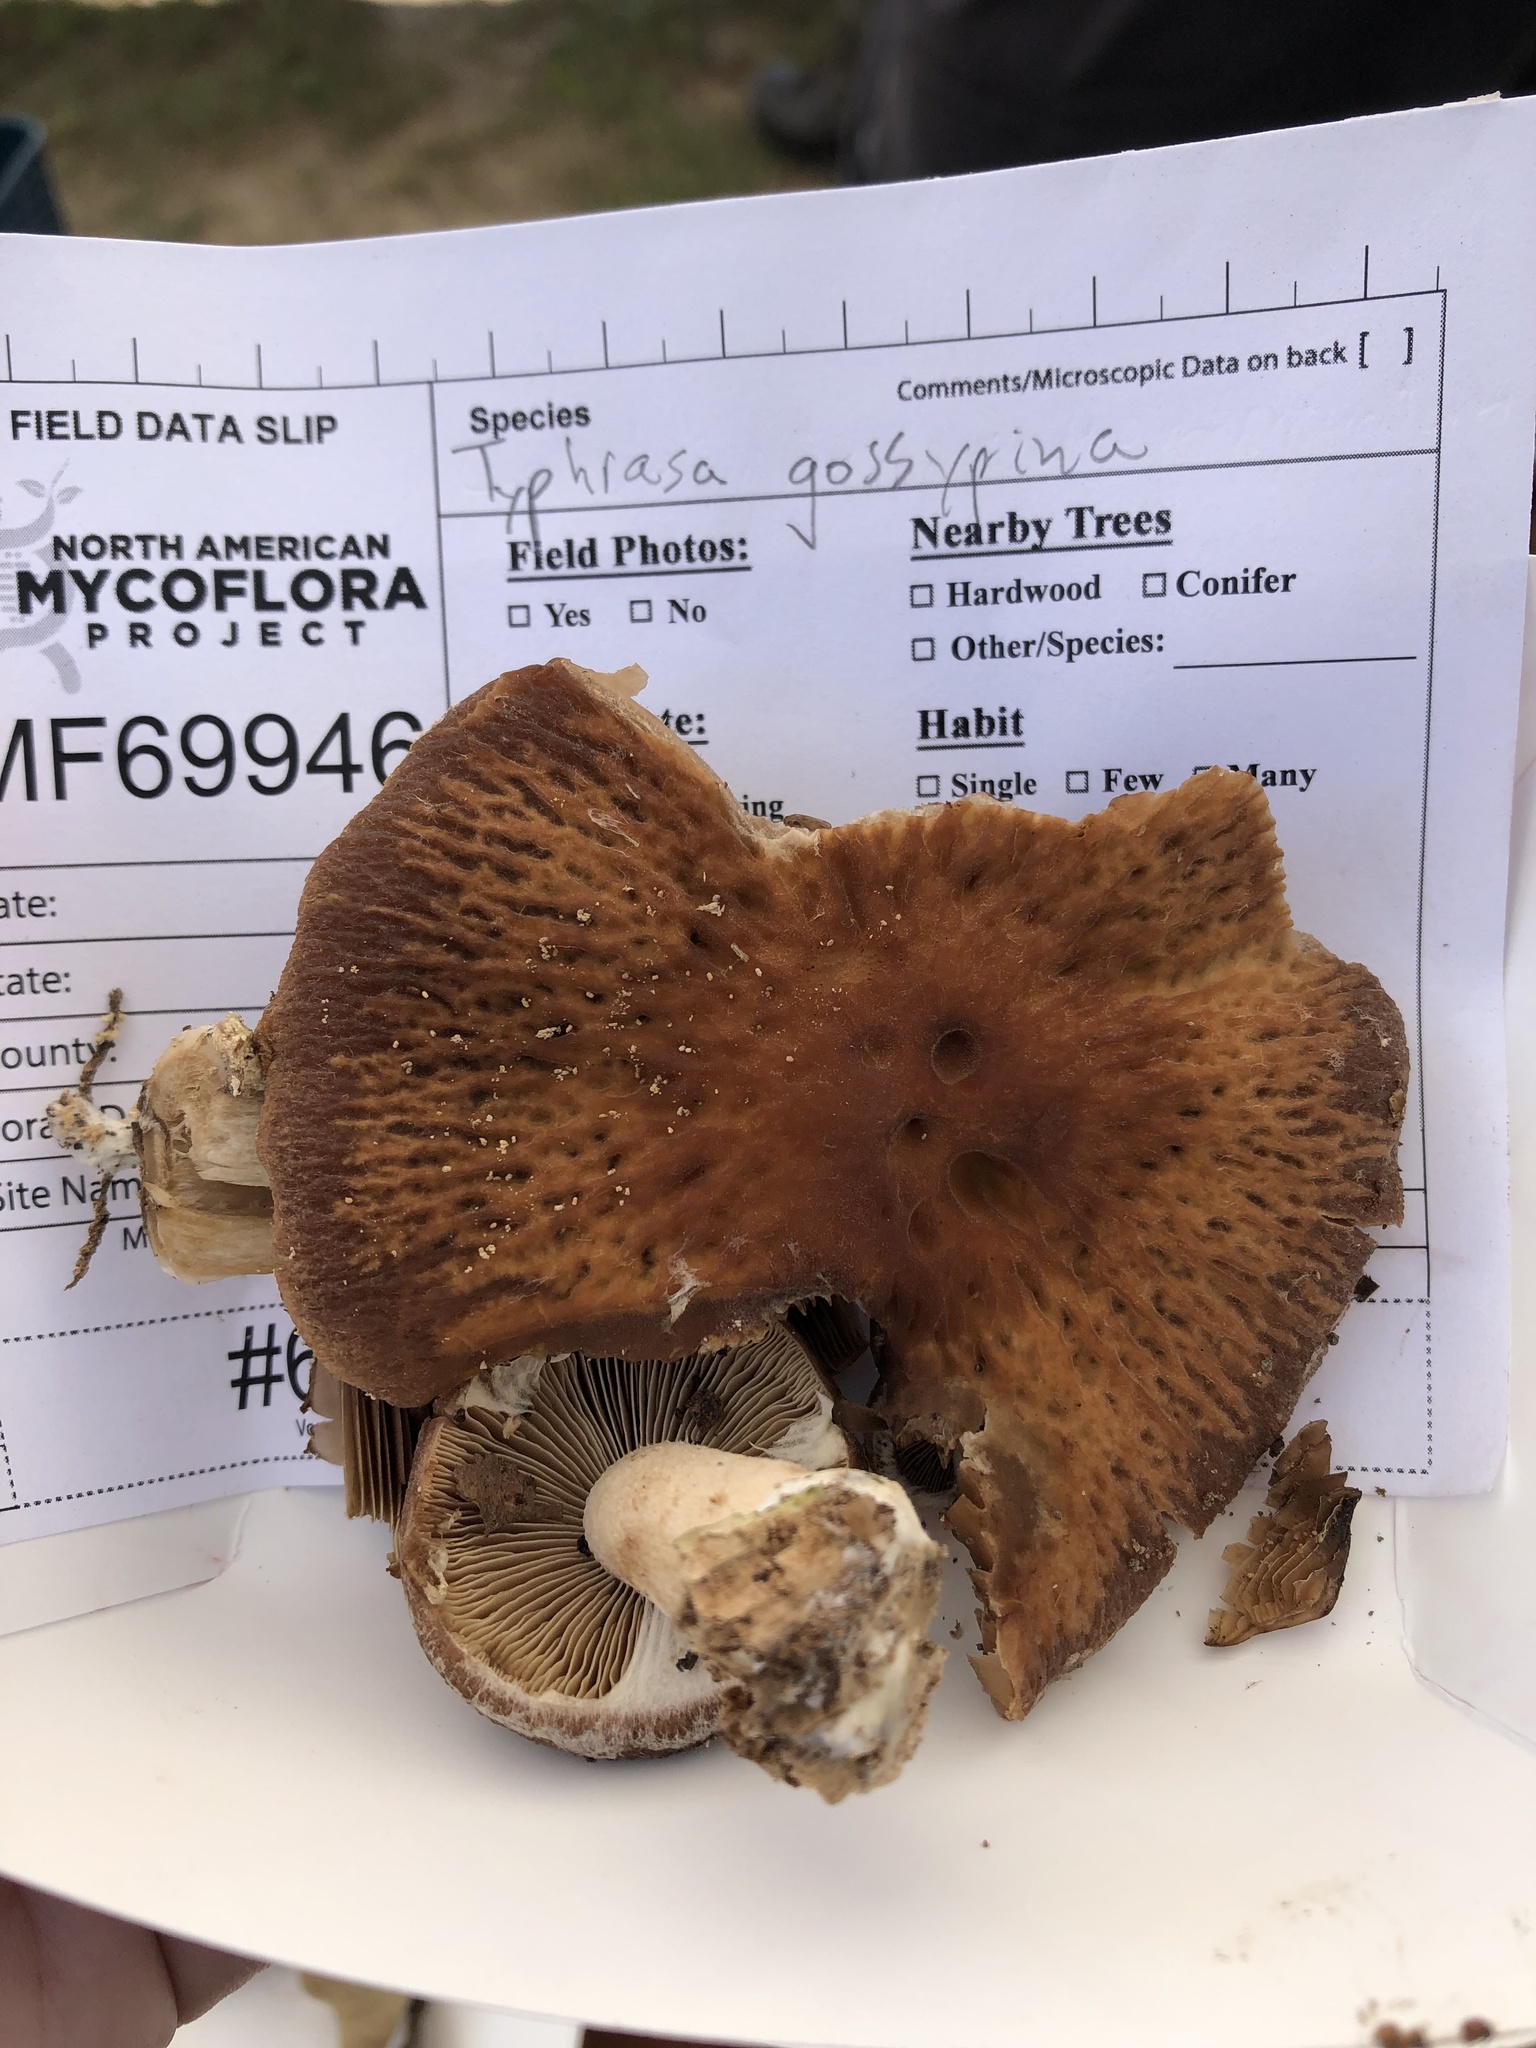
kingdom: Fungi
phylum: Basidiomycota
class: Agaricomycetes
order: Agaricales
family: Psathyrellaceae
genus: Typhrasa
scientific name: Typhrasa gossypina
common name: Wrinkled psathyrella
